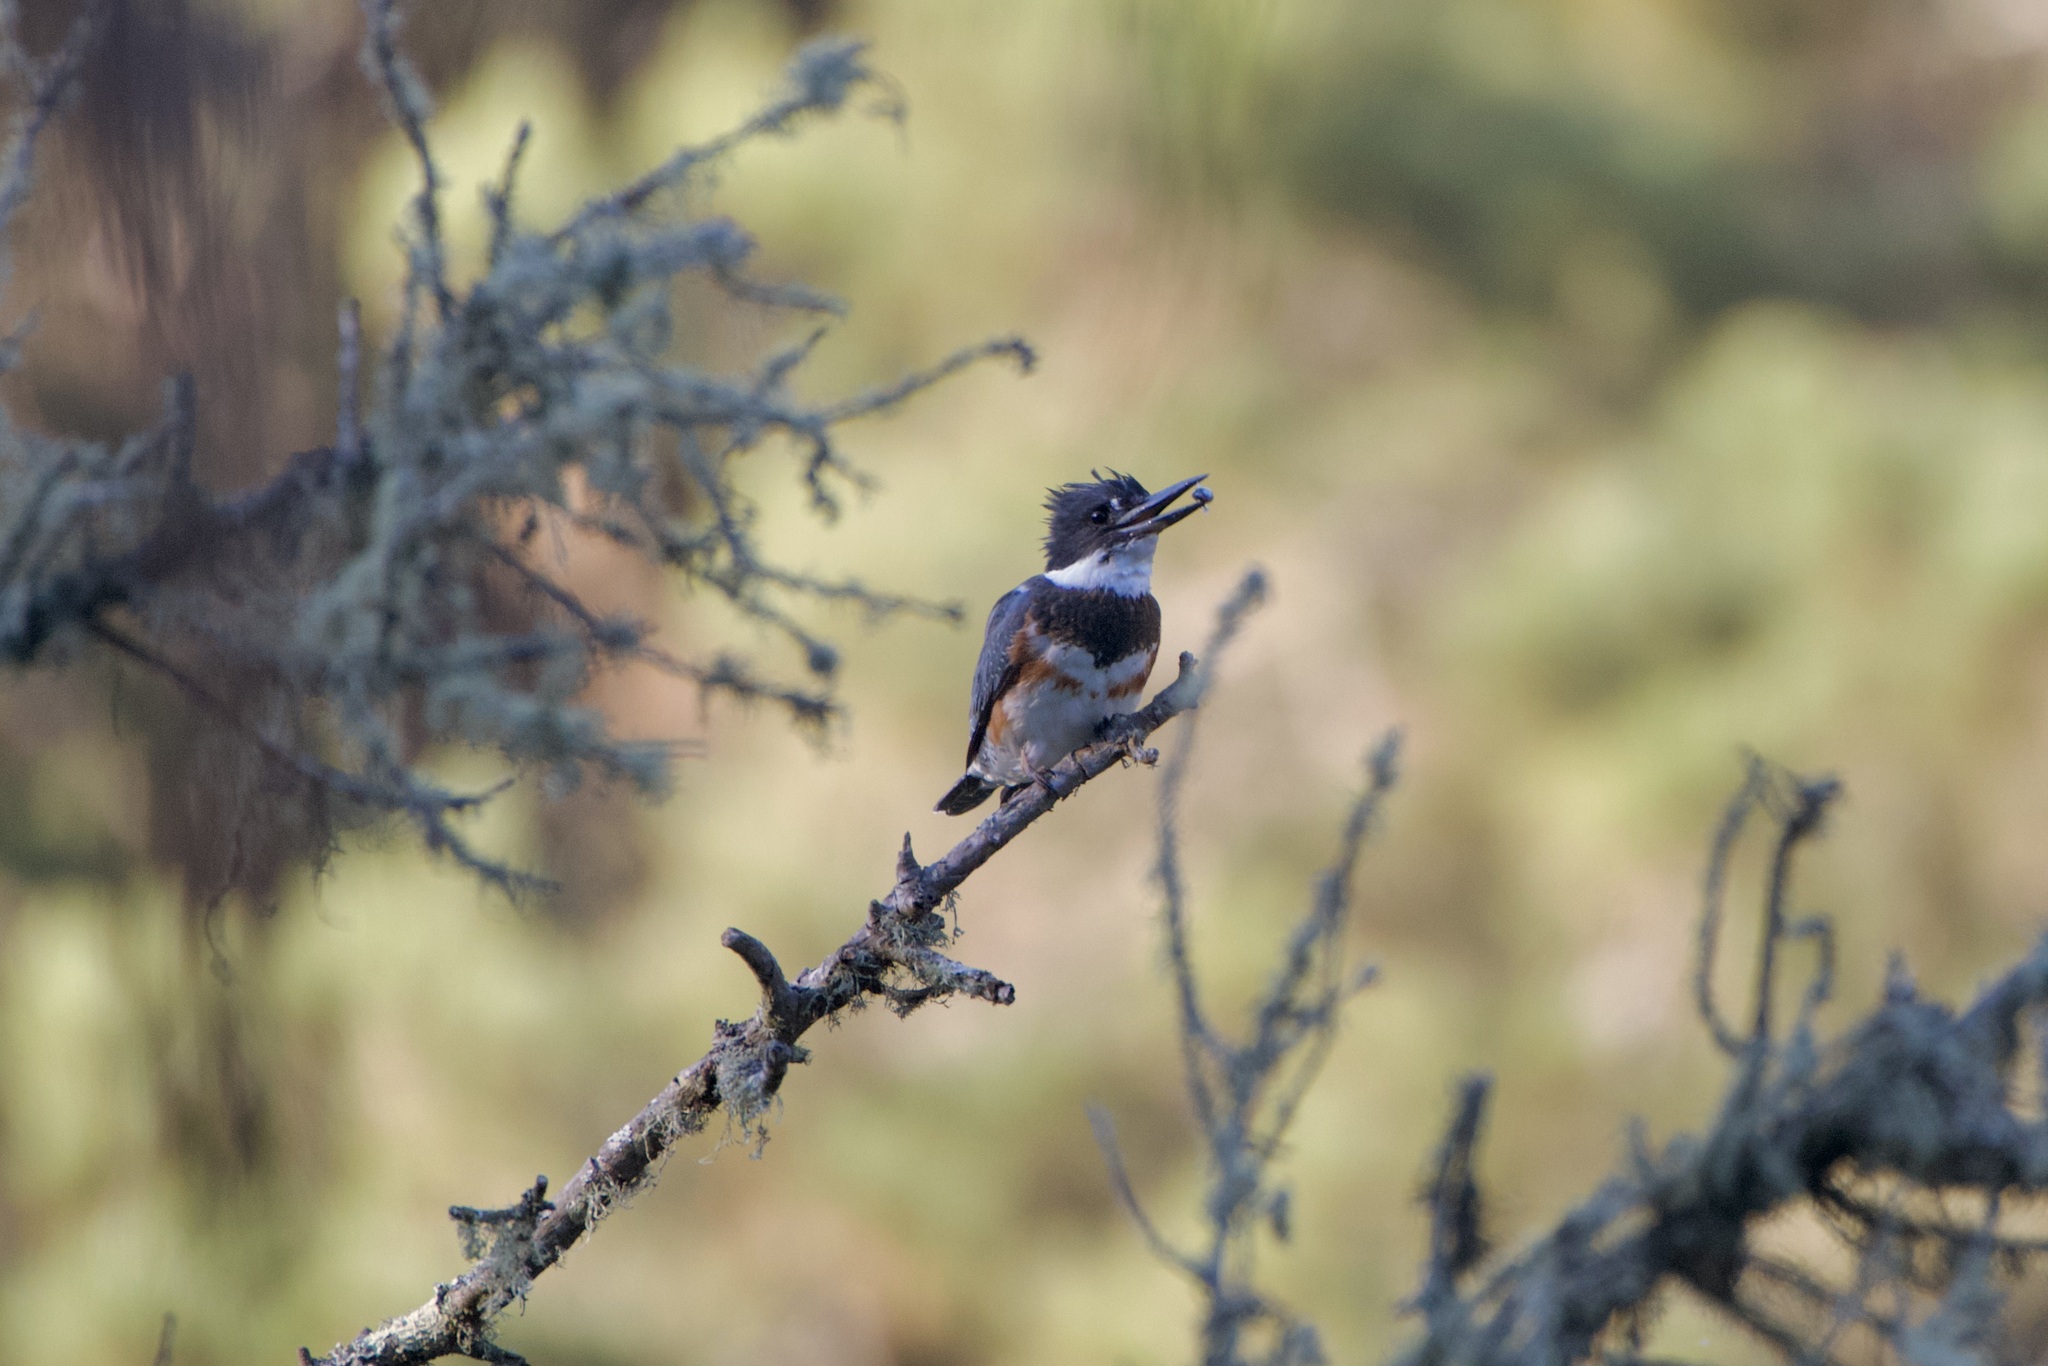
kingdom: Animalia
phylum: Chordata
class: Aves
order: Coraciiformes
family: Alcedinidae
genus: Megaceryle
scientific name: Megaceryle alcyon
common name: Belted kingfisher
